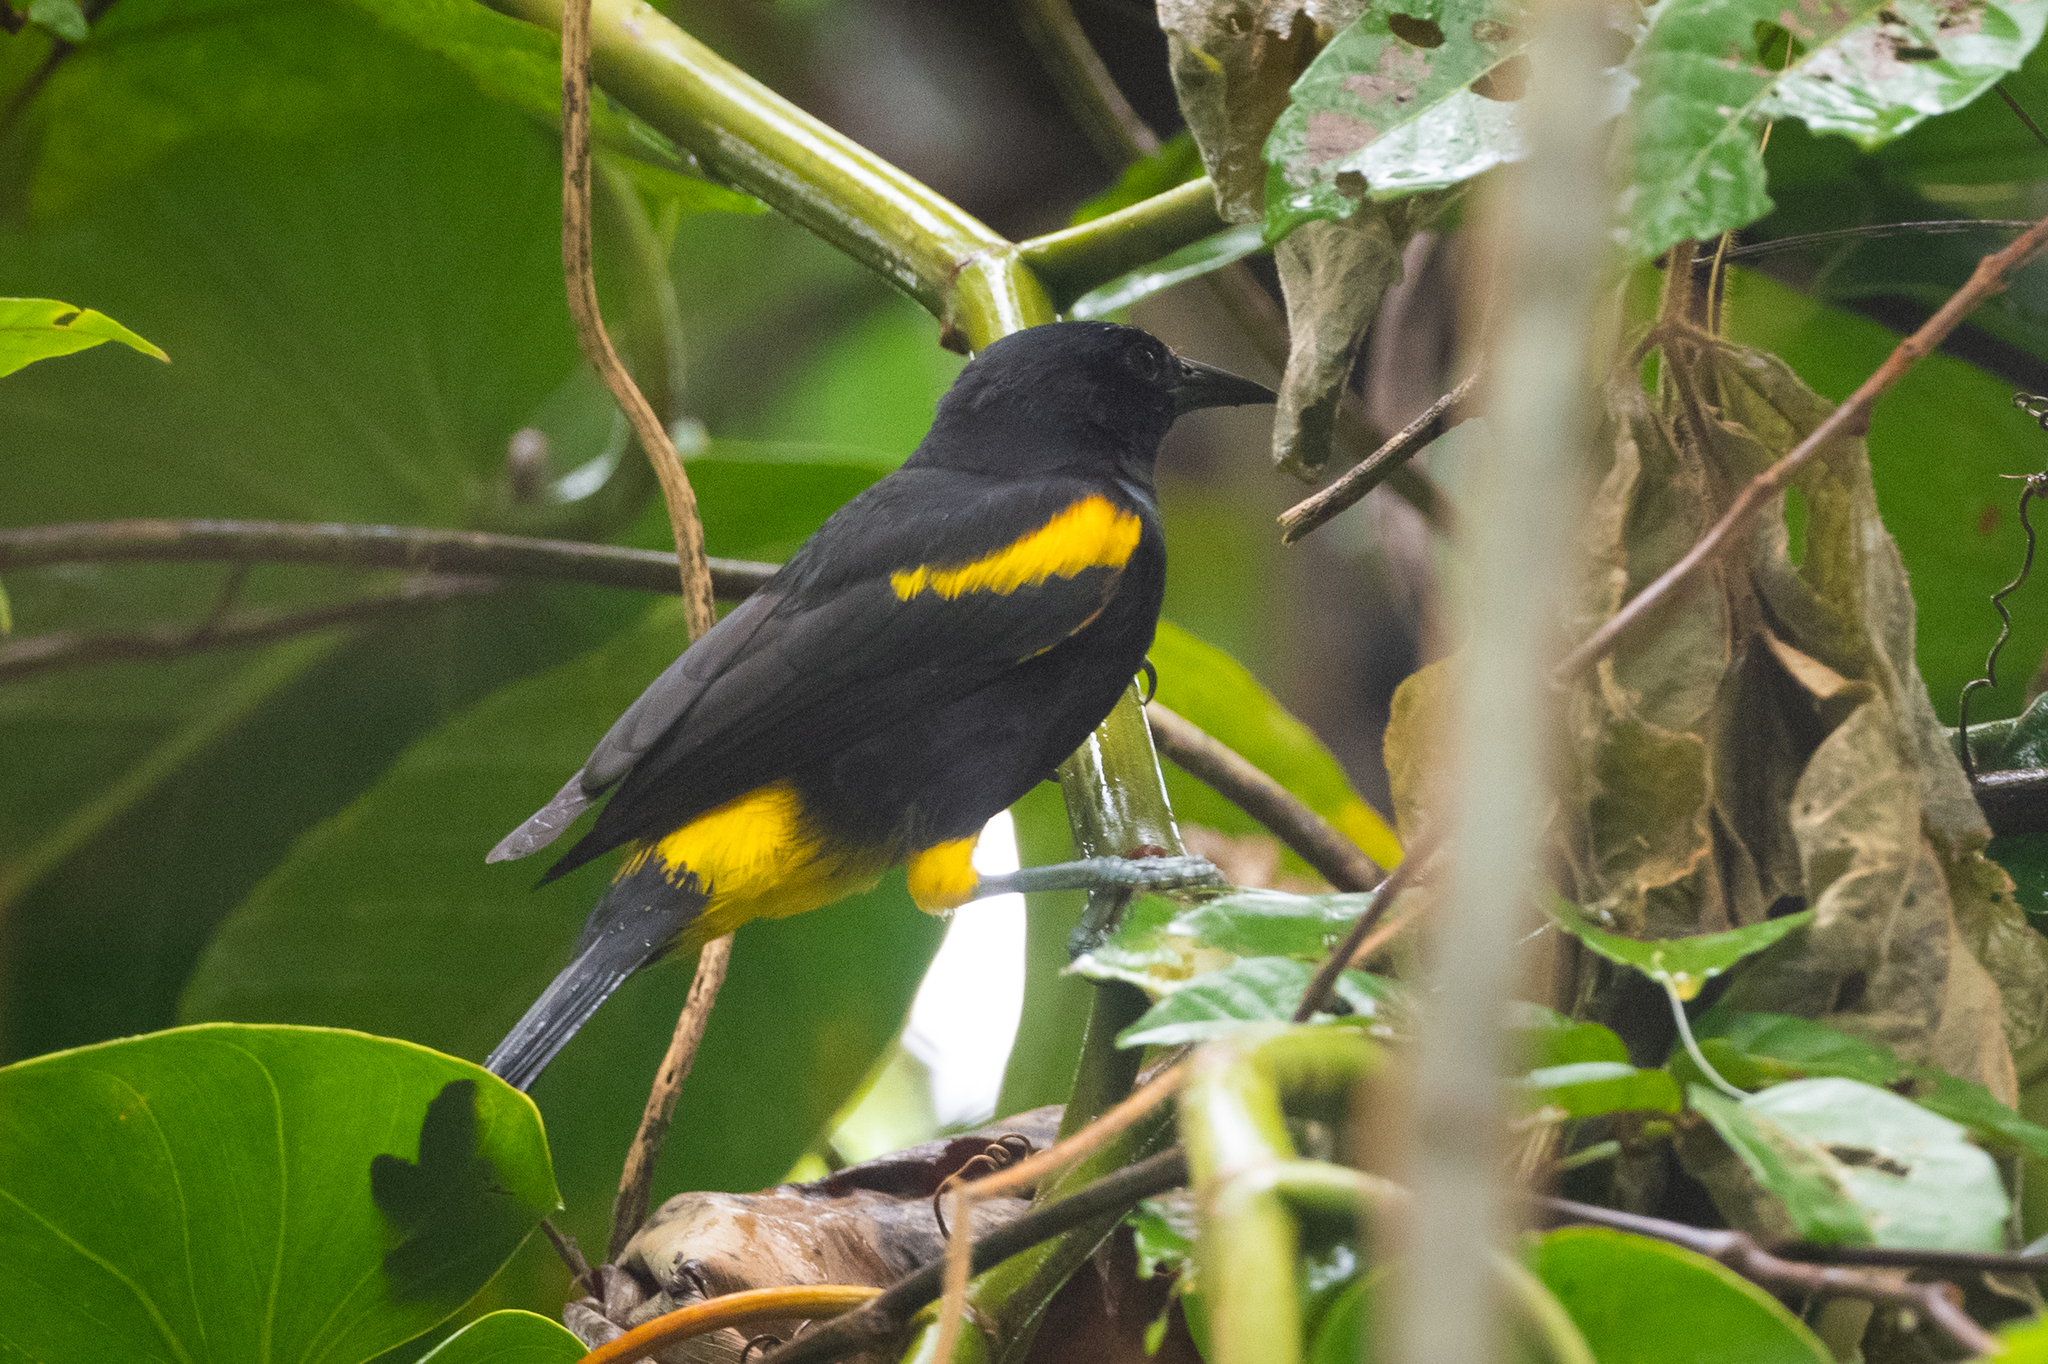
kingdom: Animalia
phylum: Chordata
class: Aves
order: Passeriformes
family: Icteridae
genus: Icterus
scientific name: Icterus portoricensis
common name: Puerto rican oriole
